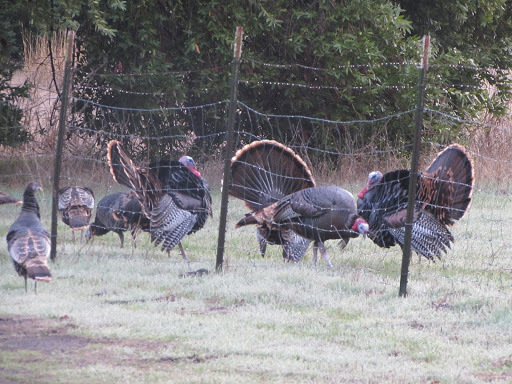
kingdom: Animalia
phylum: Chordata
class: Aves
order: Galliformes
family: Phasianidae
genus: Meleagris
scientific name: Meleagris gallopavo
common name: Wild turkey
